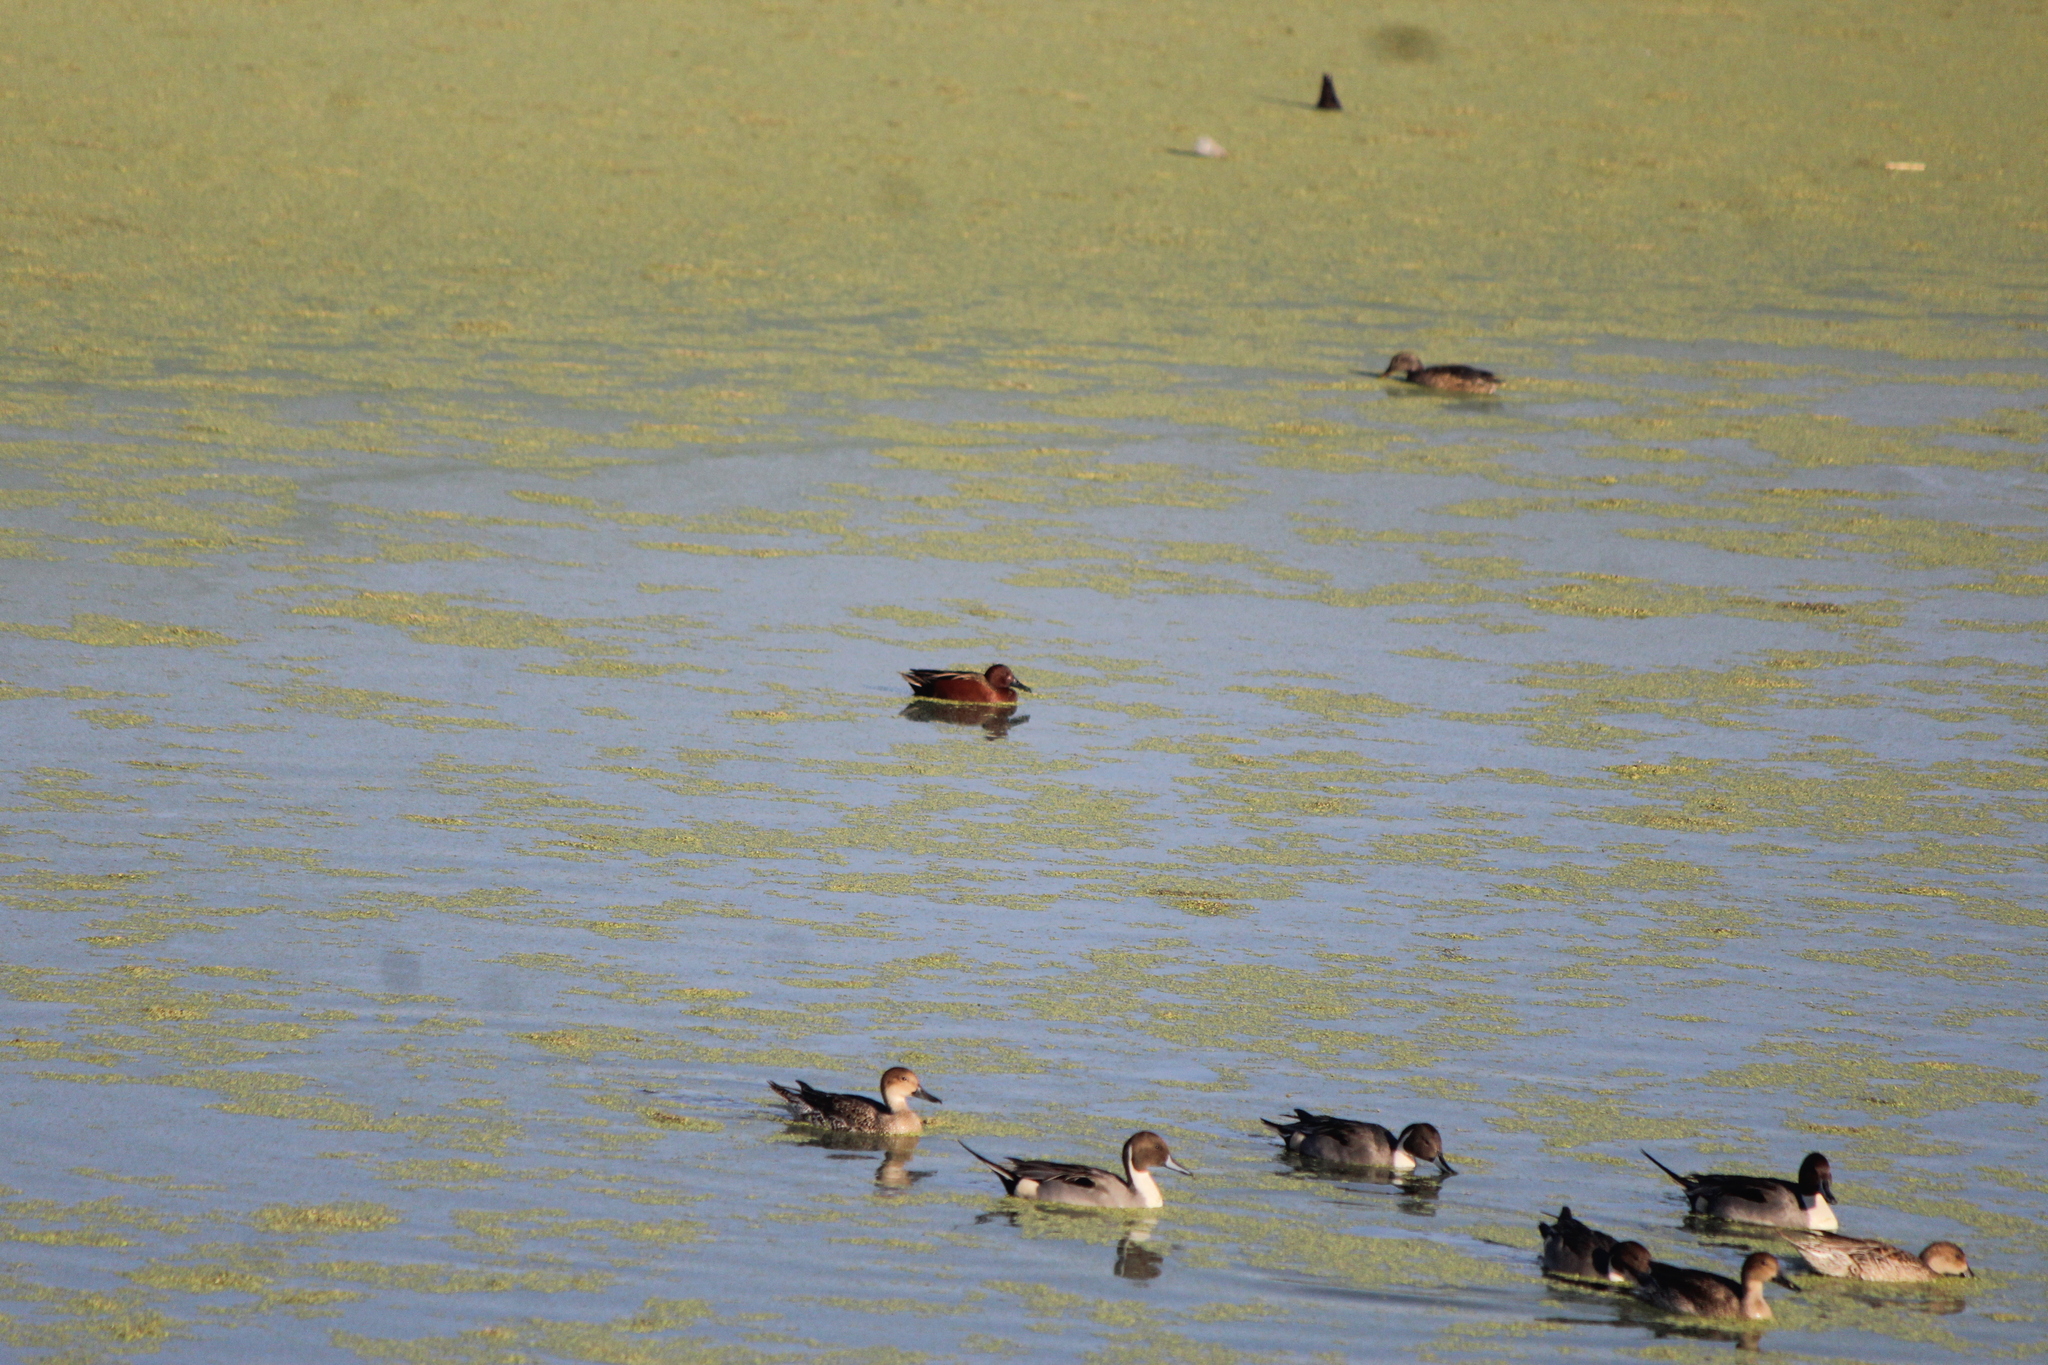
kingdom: Animalia
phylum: Chordata
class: Aves
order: Anseriformes
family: Anatidae
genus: Spatula
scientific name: Spatula cyanoptera
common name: Cinnamon teal
